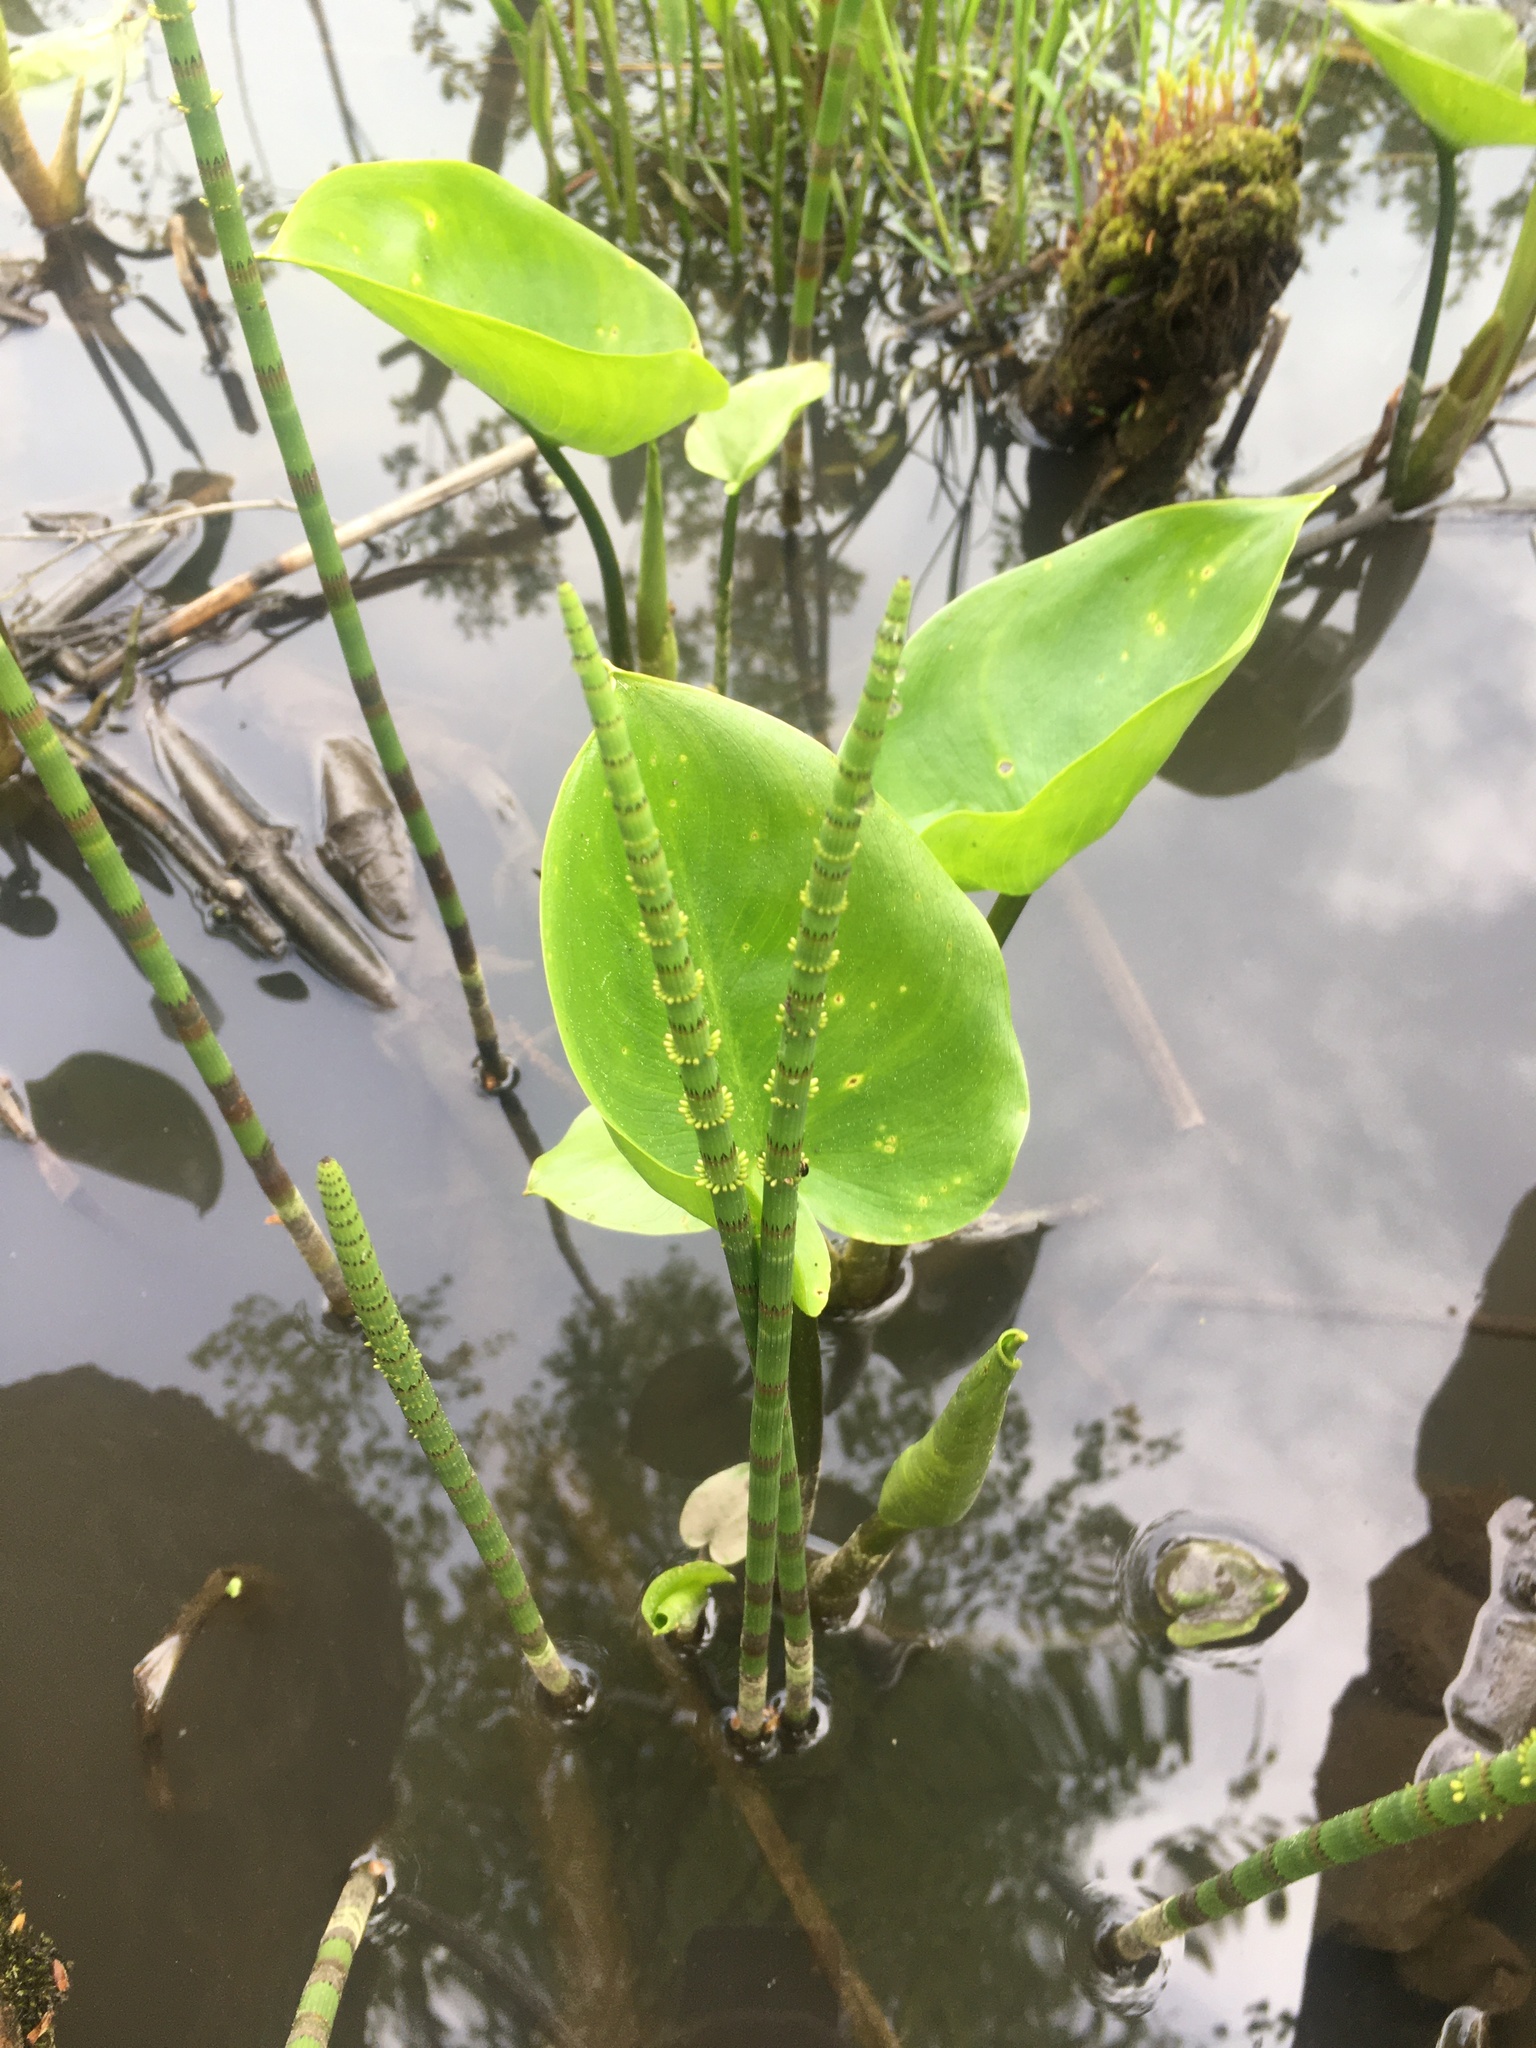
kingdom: Plantae
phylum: Tracheophyta
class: Liliopsida
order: Alismatales
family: Araceae
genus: Calla
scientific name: Calla palustris
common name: Bog arum
